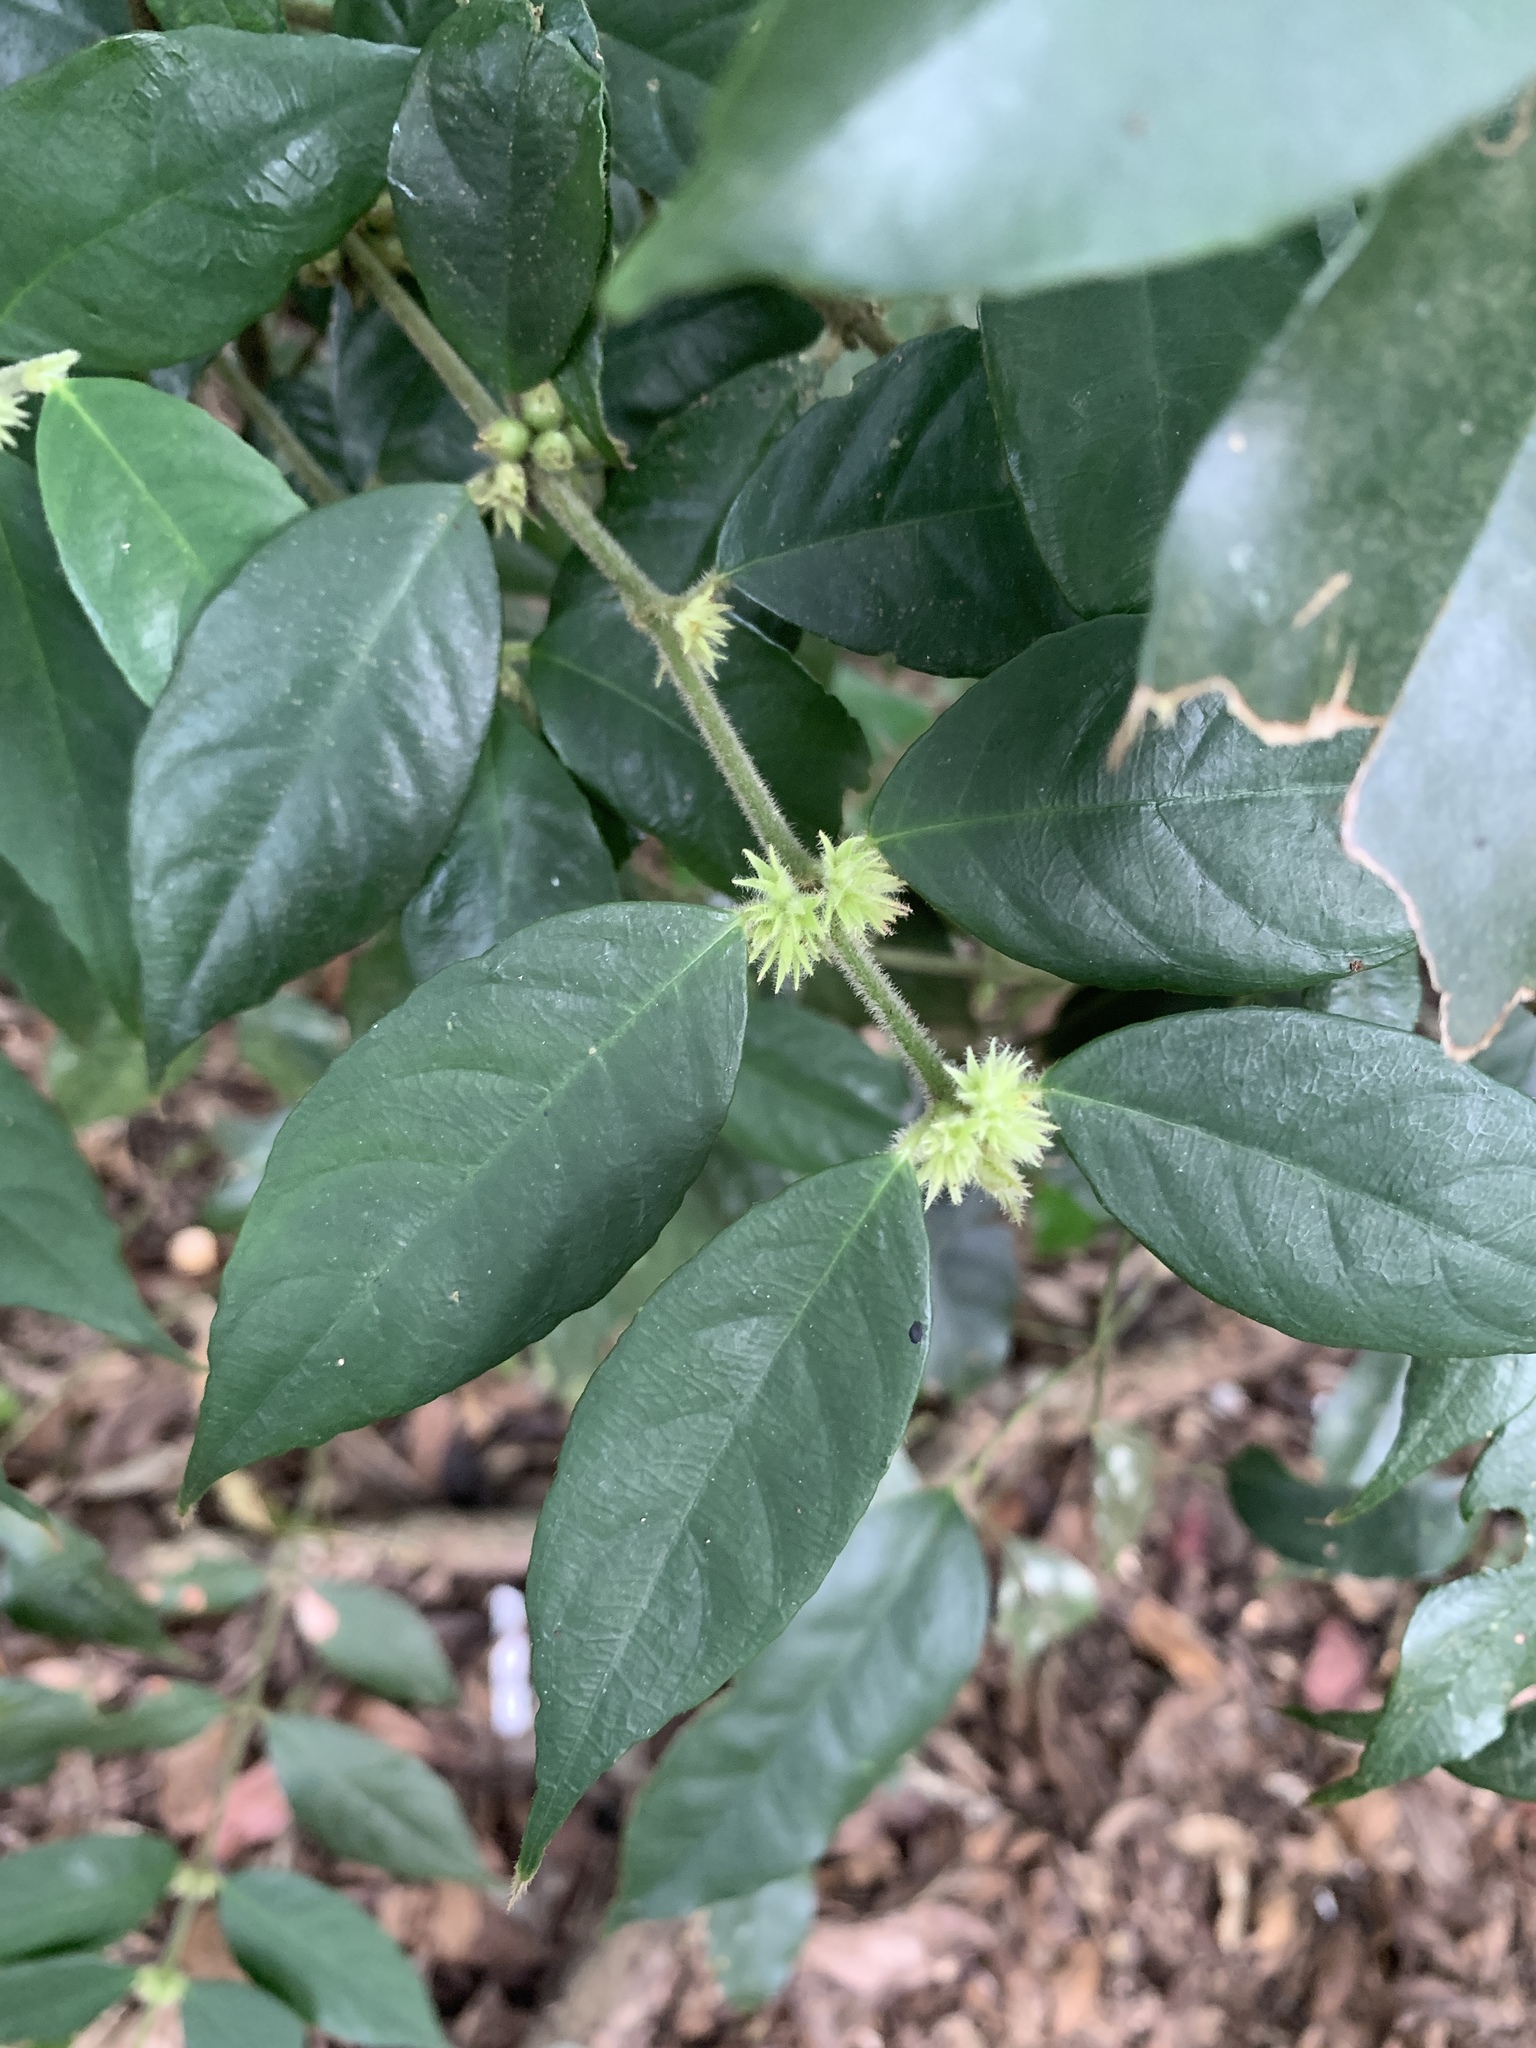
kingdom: Plantae
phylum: Tracheophyta
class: Magnoliopsida
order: Gentianales
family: Rubiaceae
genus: Lasianthus
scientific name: Lasianthus curtisii
